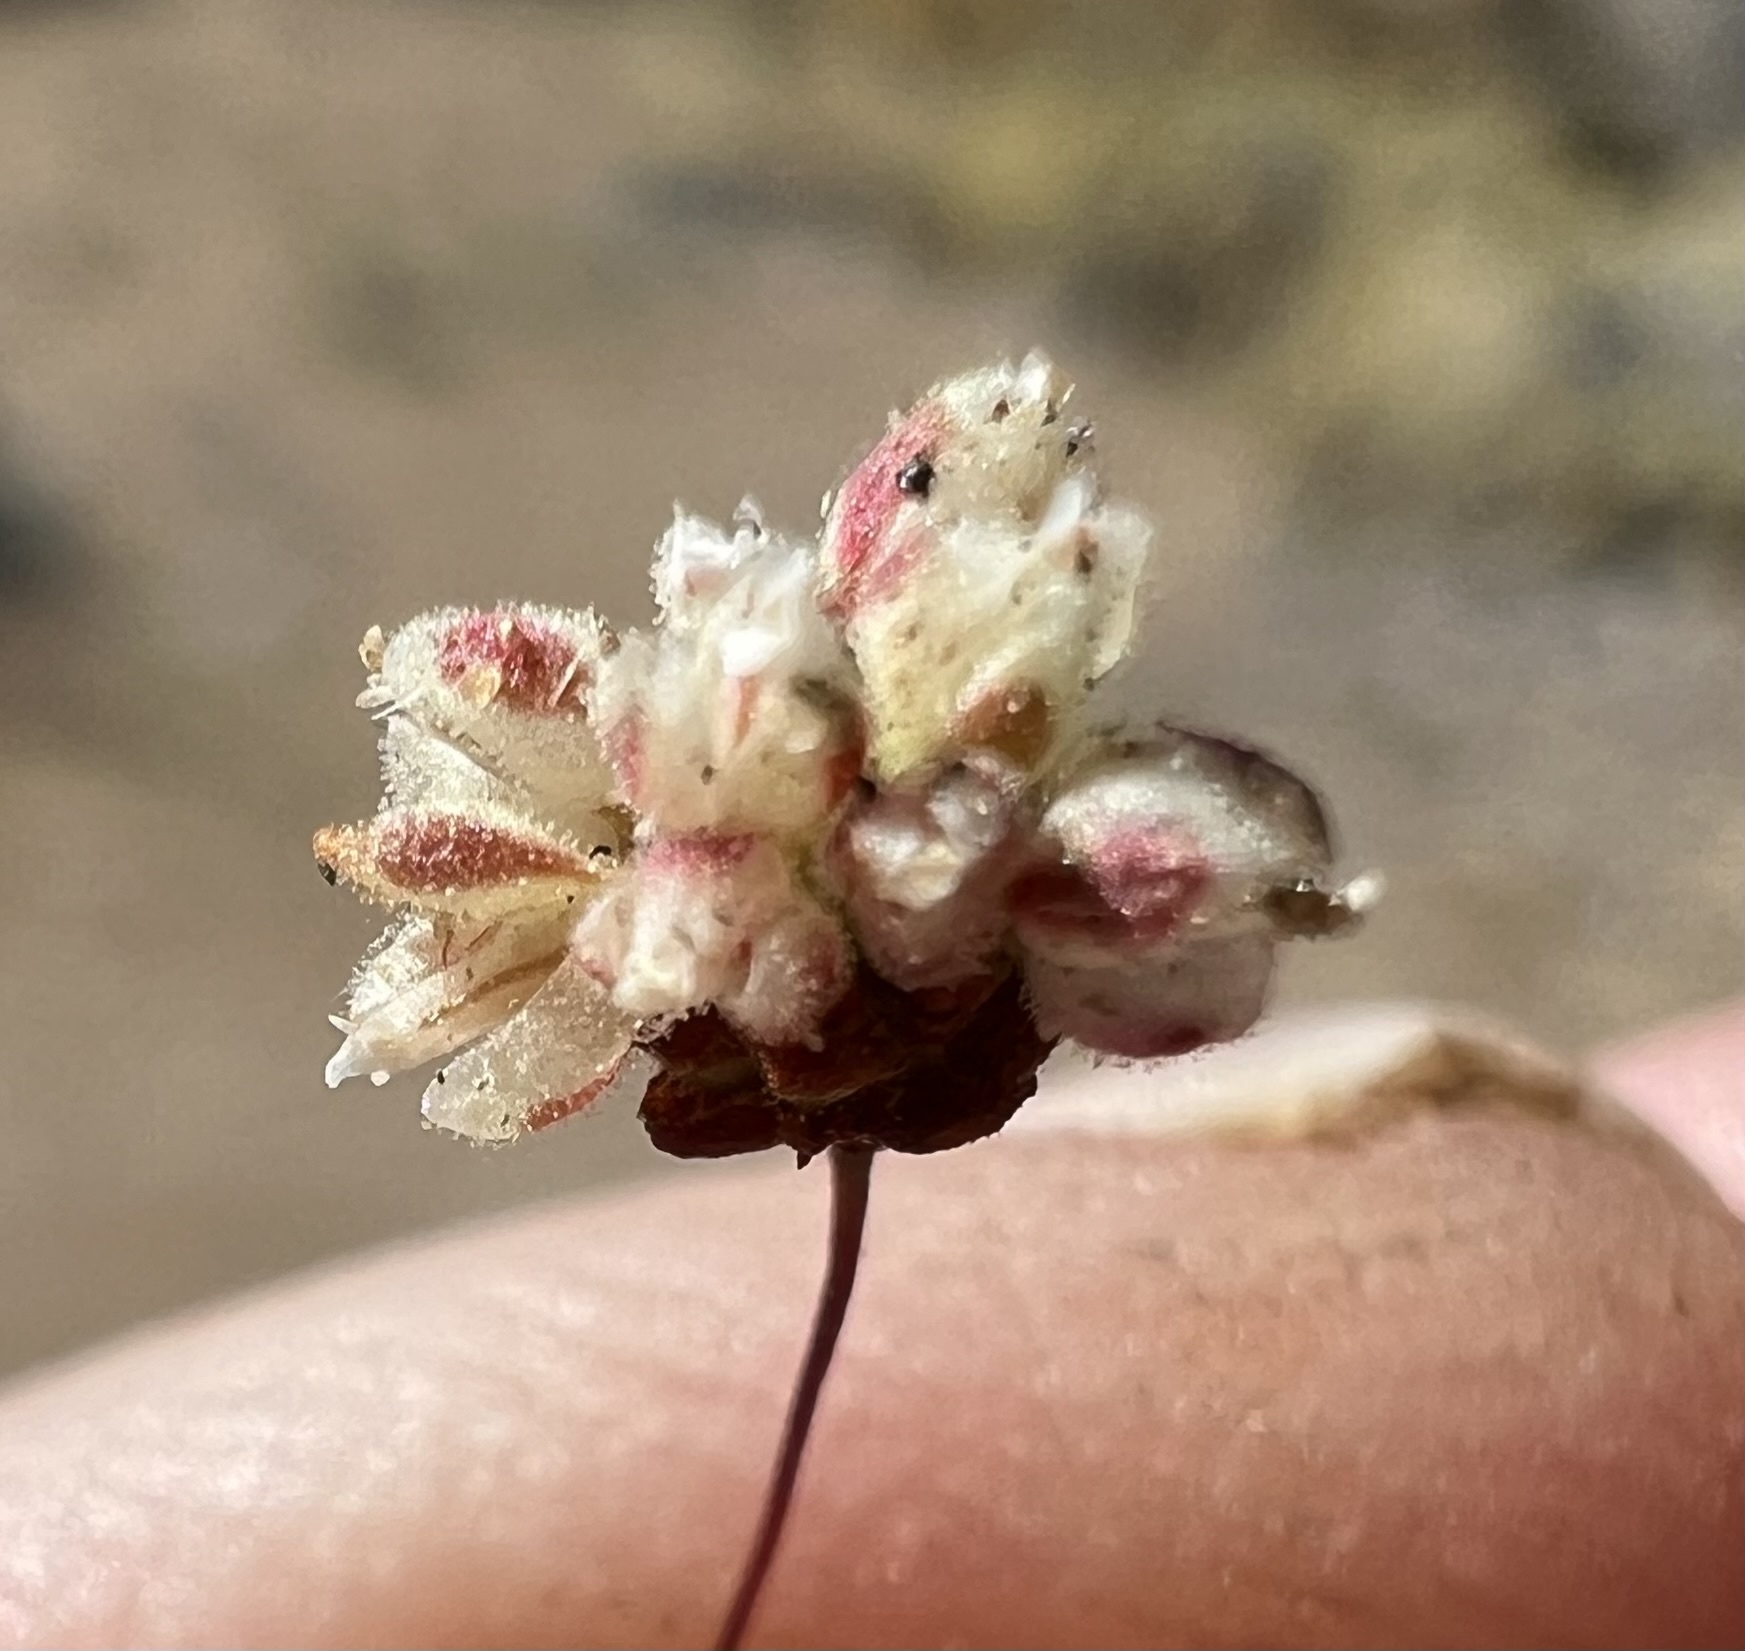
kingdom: Plantae
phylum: Tracheophyta
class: Magnoliopsida
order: Caryophyllales
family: Polygonaceae
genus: Eriogonum
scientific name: Eriogonum maculatum
